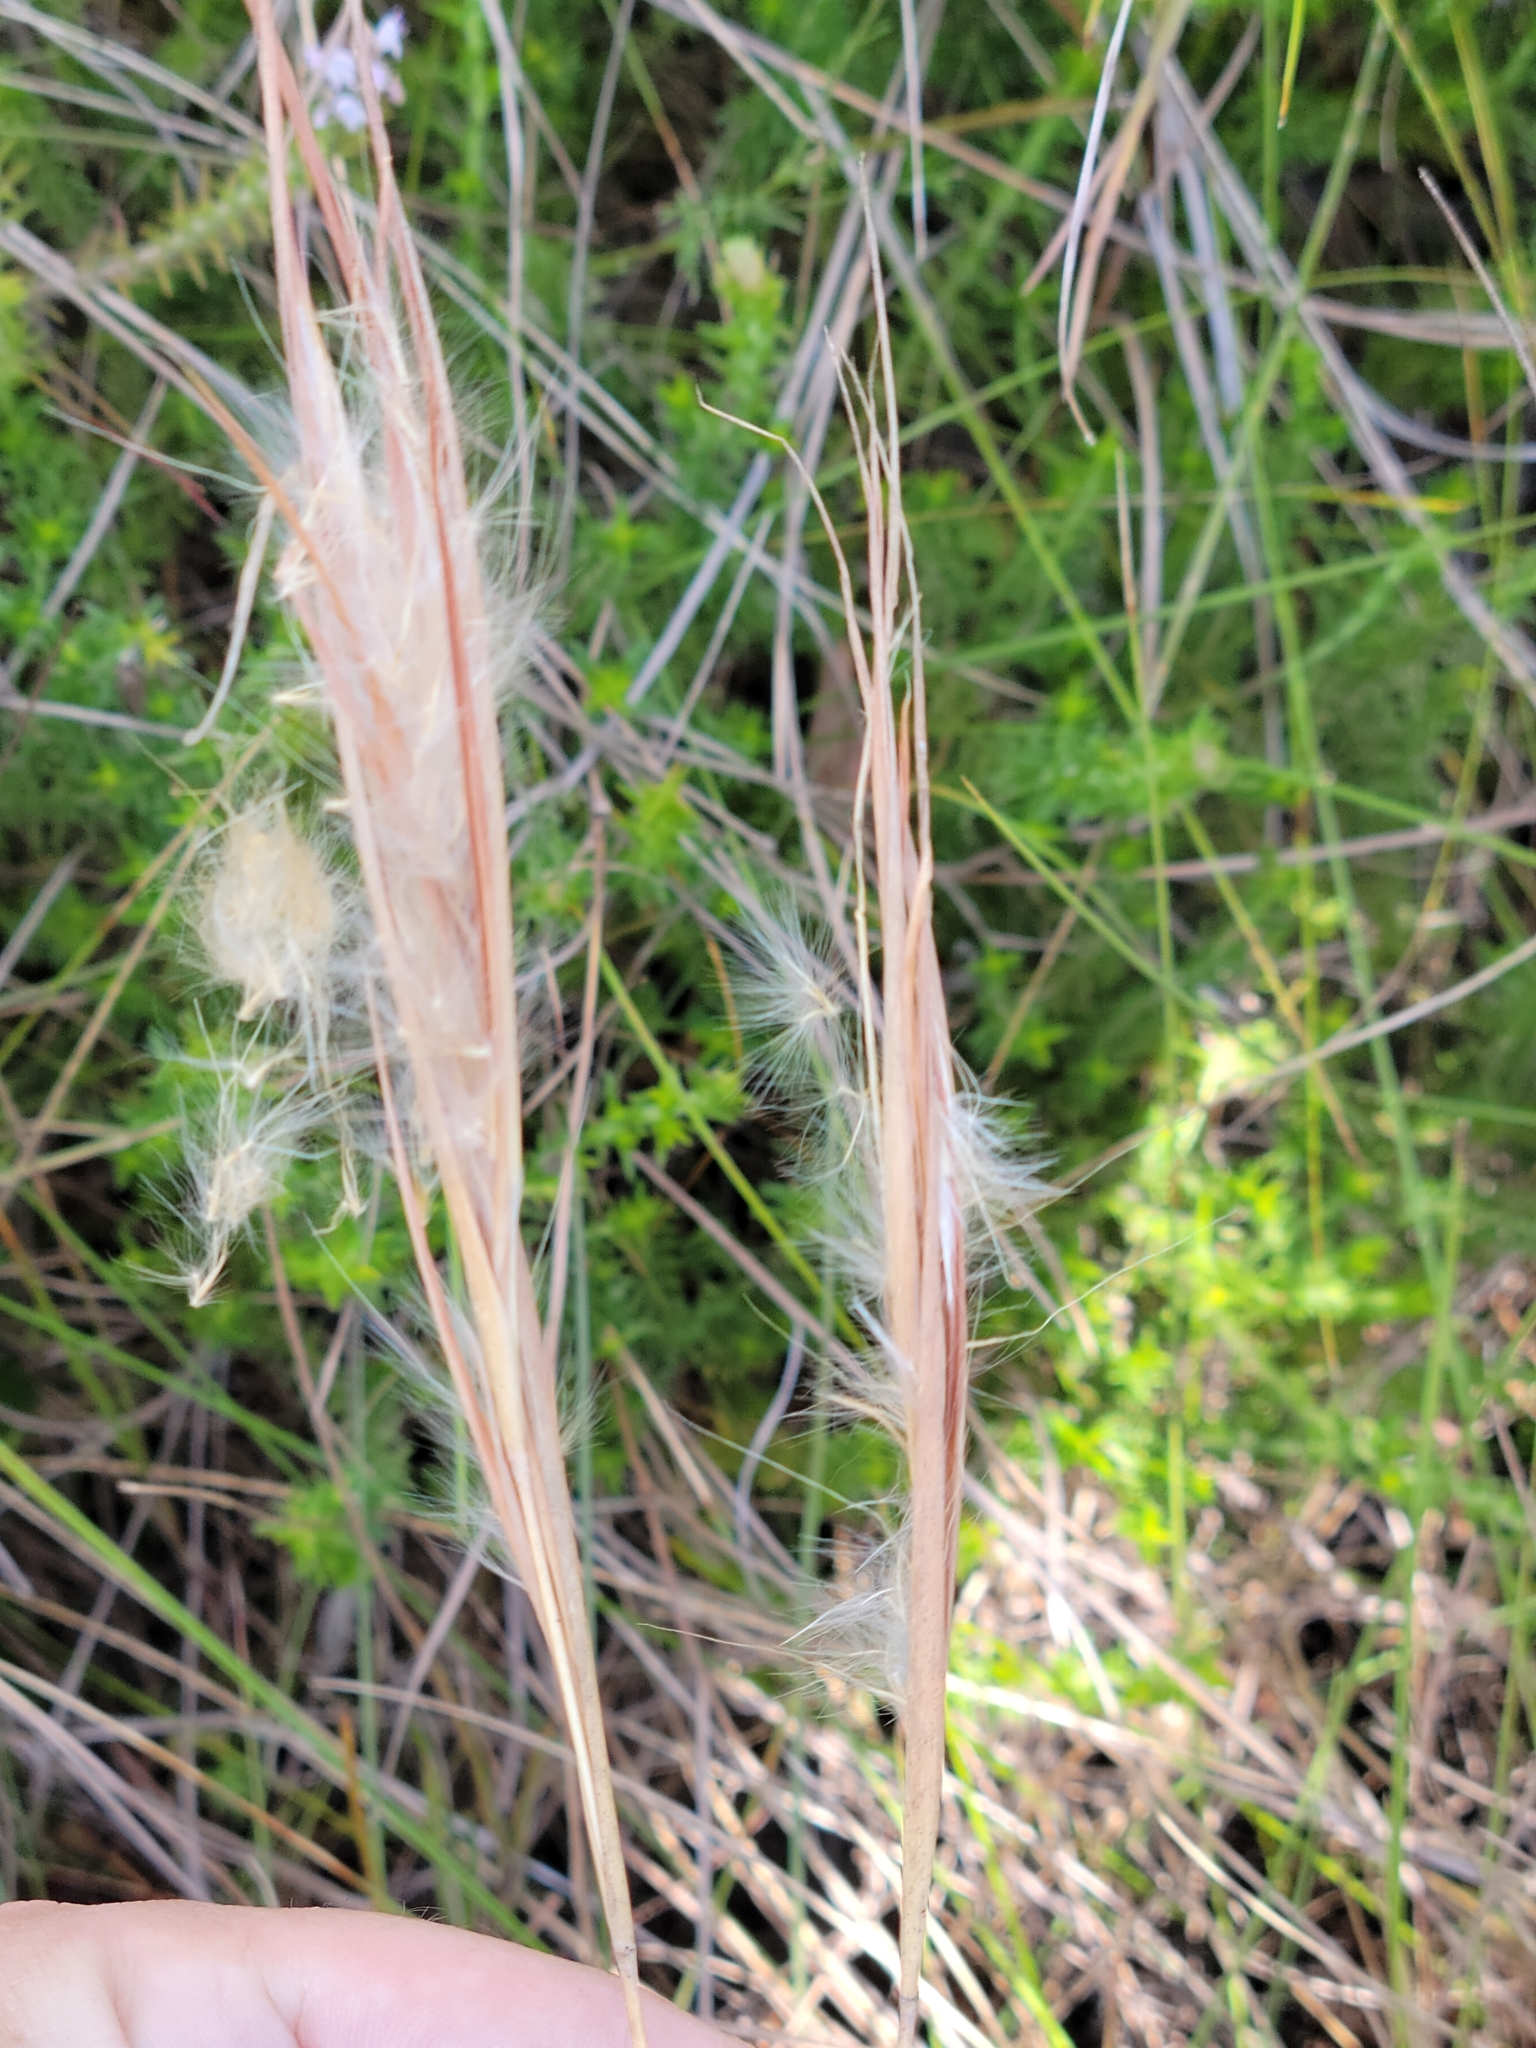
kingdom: Plantae
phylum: Tracheophyta
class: Liliopsida
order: Poales
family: Poaceae
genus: Andropogon
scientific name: Andropogon gyrans
